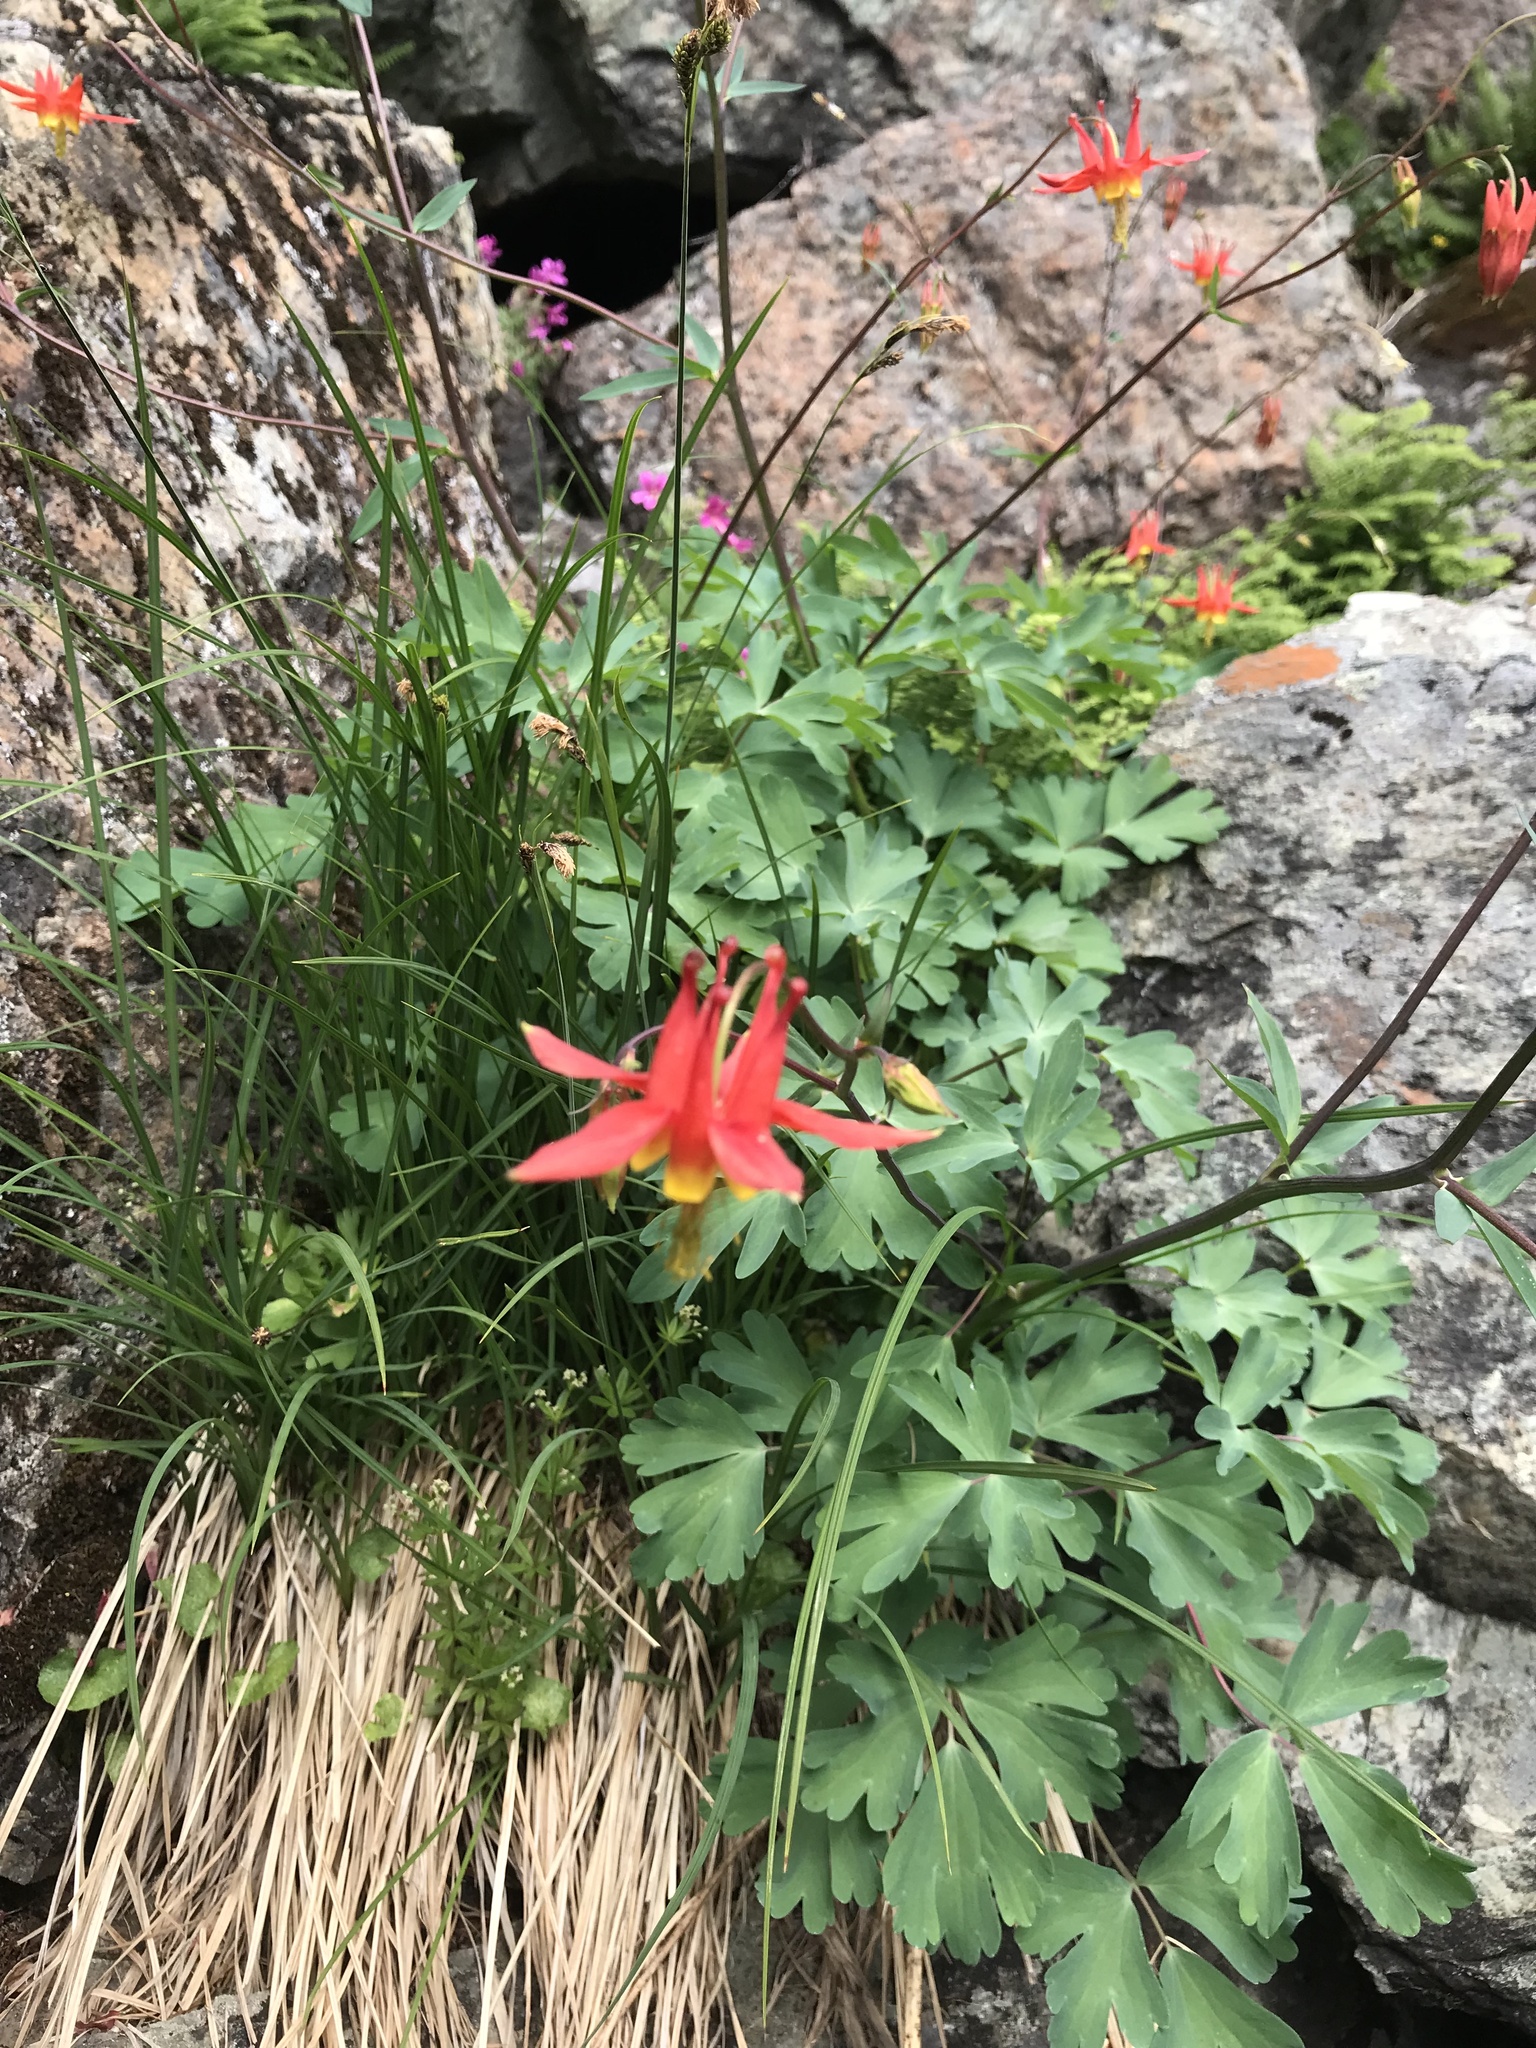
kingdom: Plantae
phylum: Tracheophyta
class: Magnoliopsida
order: Ranunculales
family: Ranunculaceae
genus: Aquilegia
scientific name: Aquilegia formosa
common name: Sitka columbine
